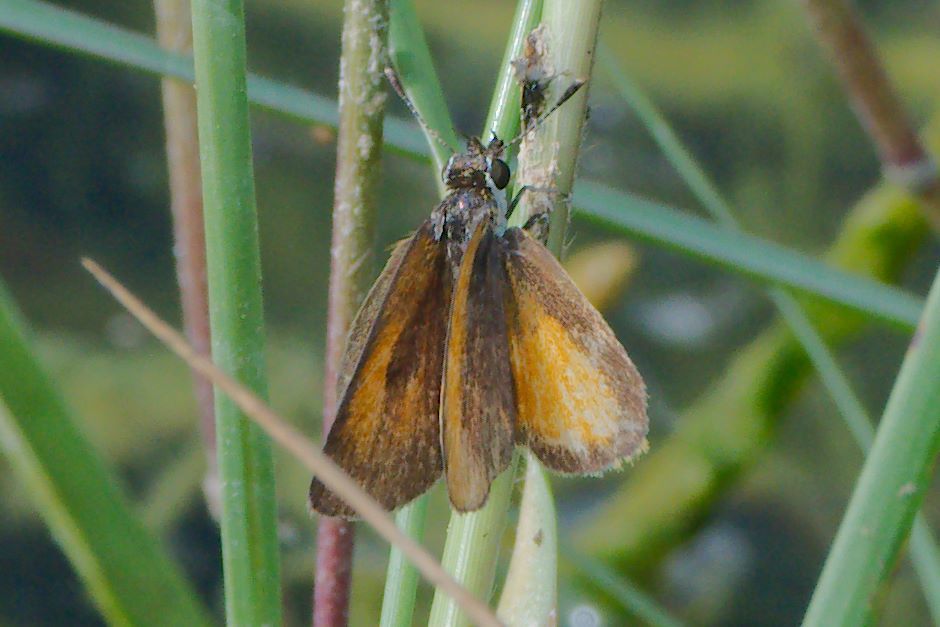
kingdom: Animalia
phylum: Arthropoda
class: Insecta
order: Lepidoptera
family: Hesperiidae
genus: Ancyloxypha
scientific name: Ancyloxypha numitor
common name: Least skipper
